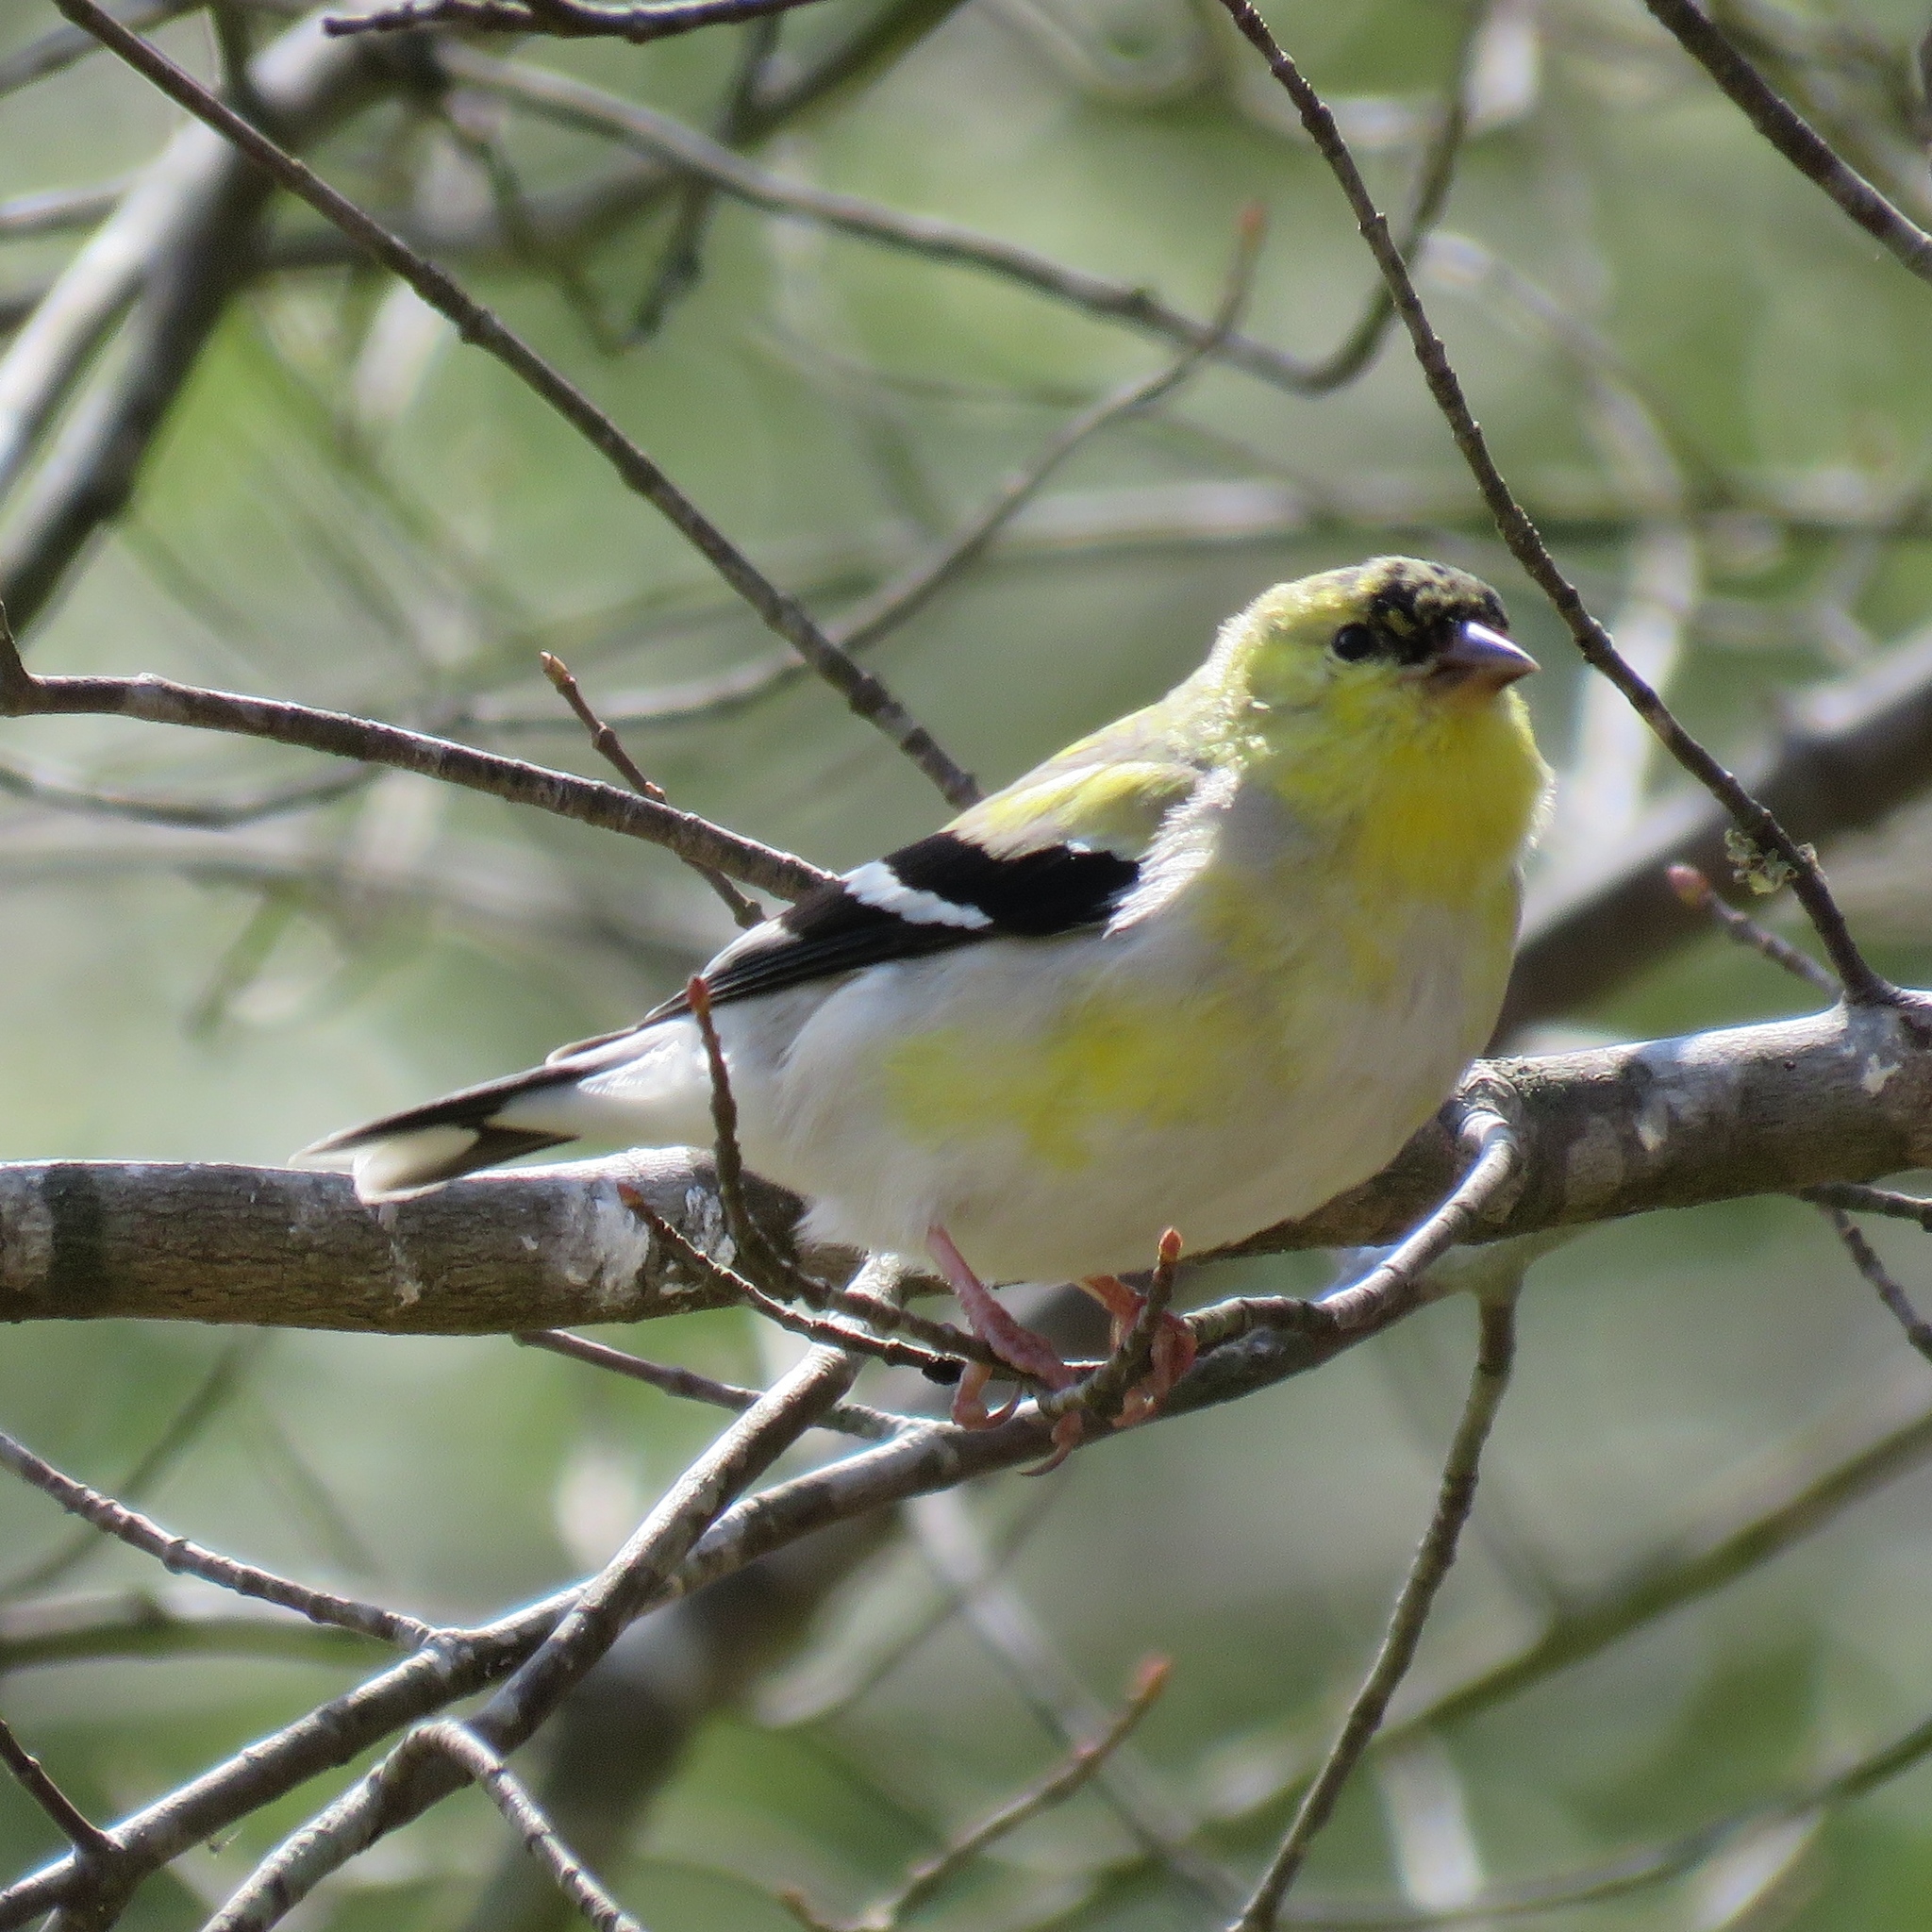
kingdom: Animalia
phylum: Chordata
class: Aves
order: Passeriformes
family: Fringillidae
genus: Spinus
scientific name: Spinus tristis
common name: American goldfinch
